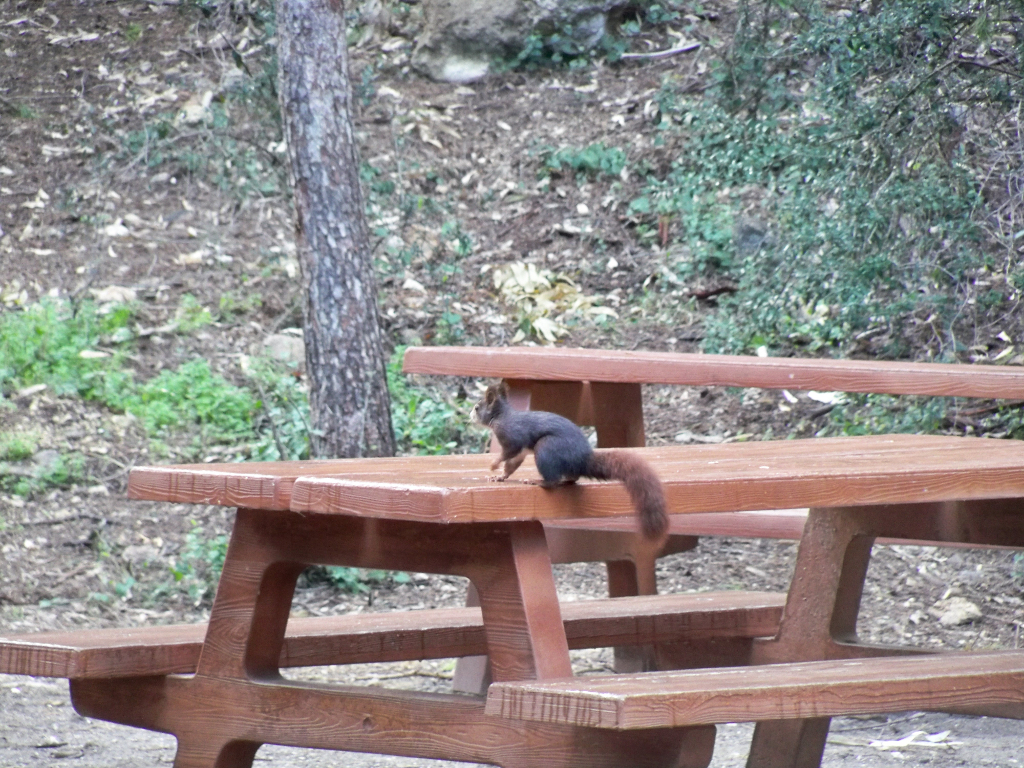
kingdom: Animalia
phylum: Chordata
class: Mammalia
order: Rodentia
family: Sciuridae
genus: Sciurus
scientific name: Sciurus vulgaris
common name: Eurasian red squirrel
